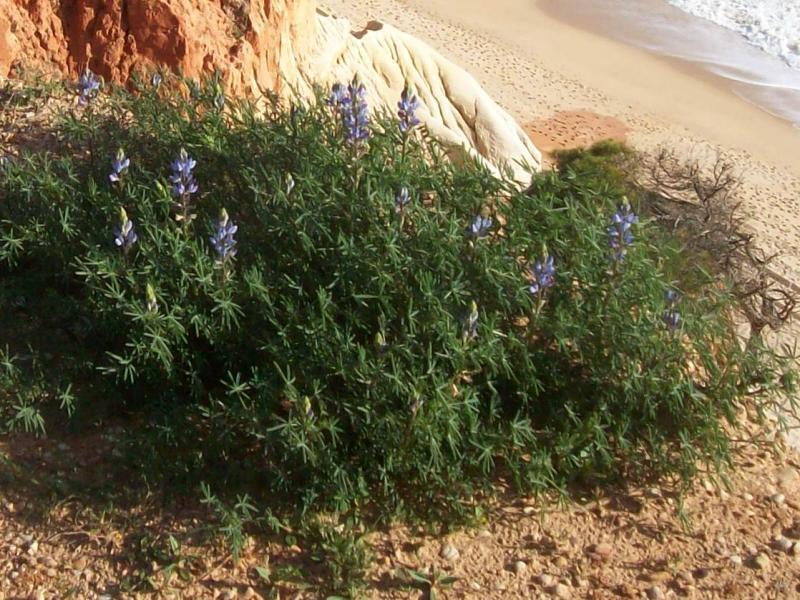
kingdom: Plantae
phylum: Tracheophyta
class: Magnoliopsida
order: Fabales
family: Fabaceae
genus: Lupinus
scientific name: Lupinus angustifolius
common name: Narrow-leaved lupin
